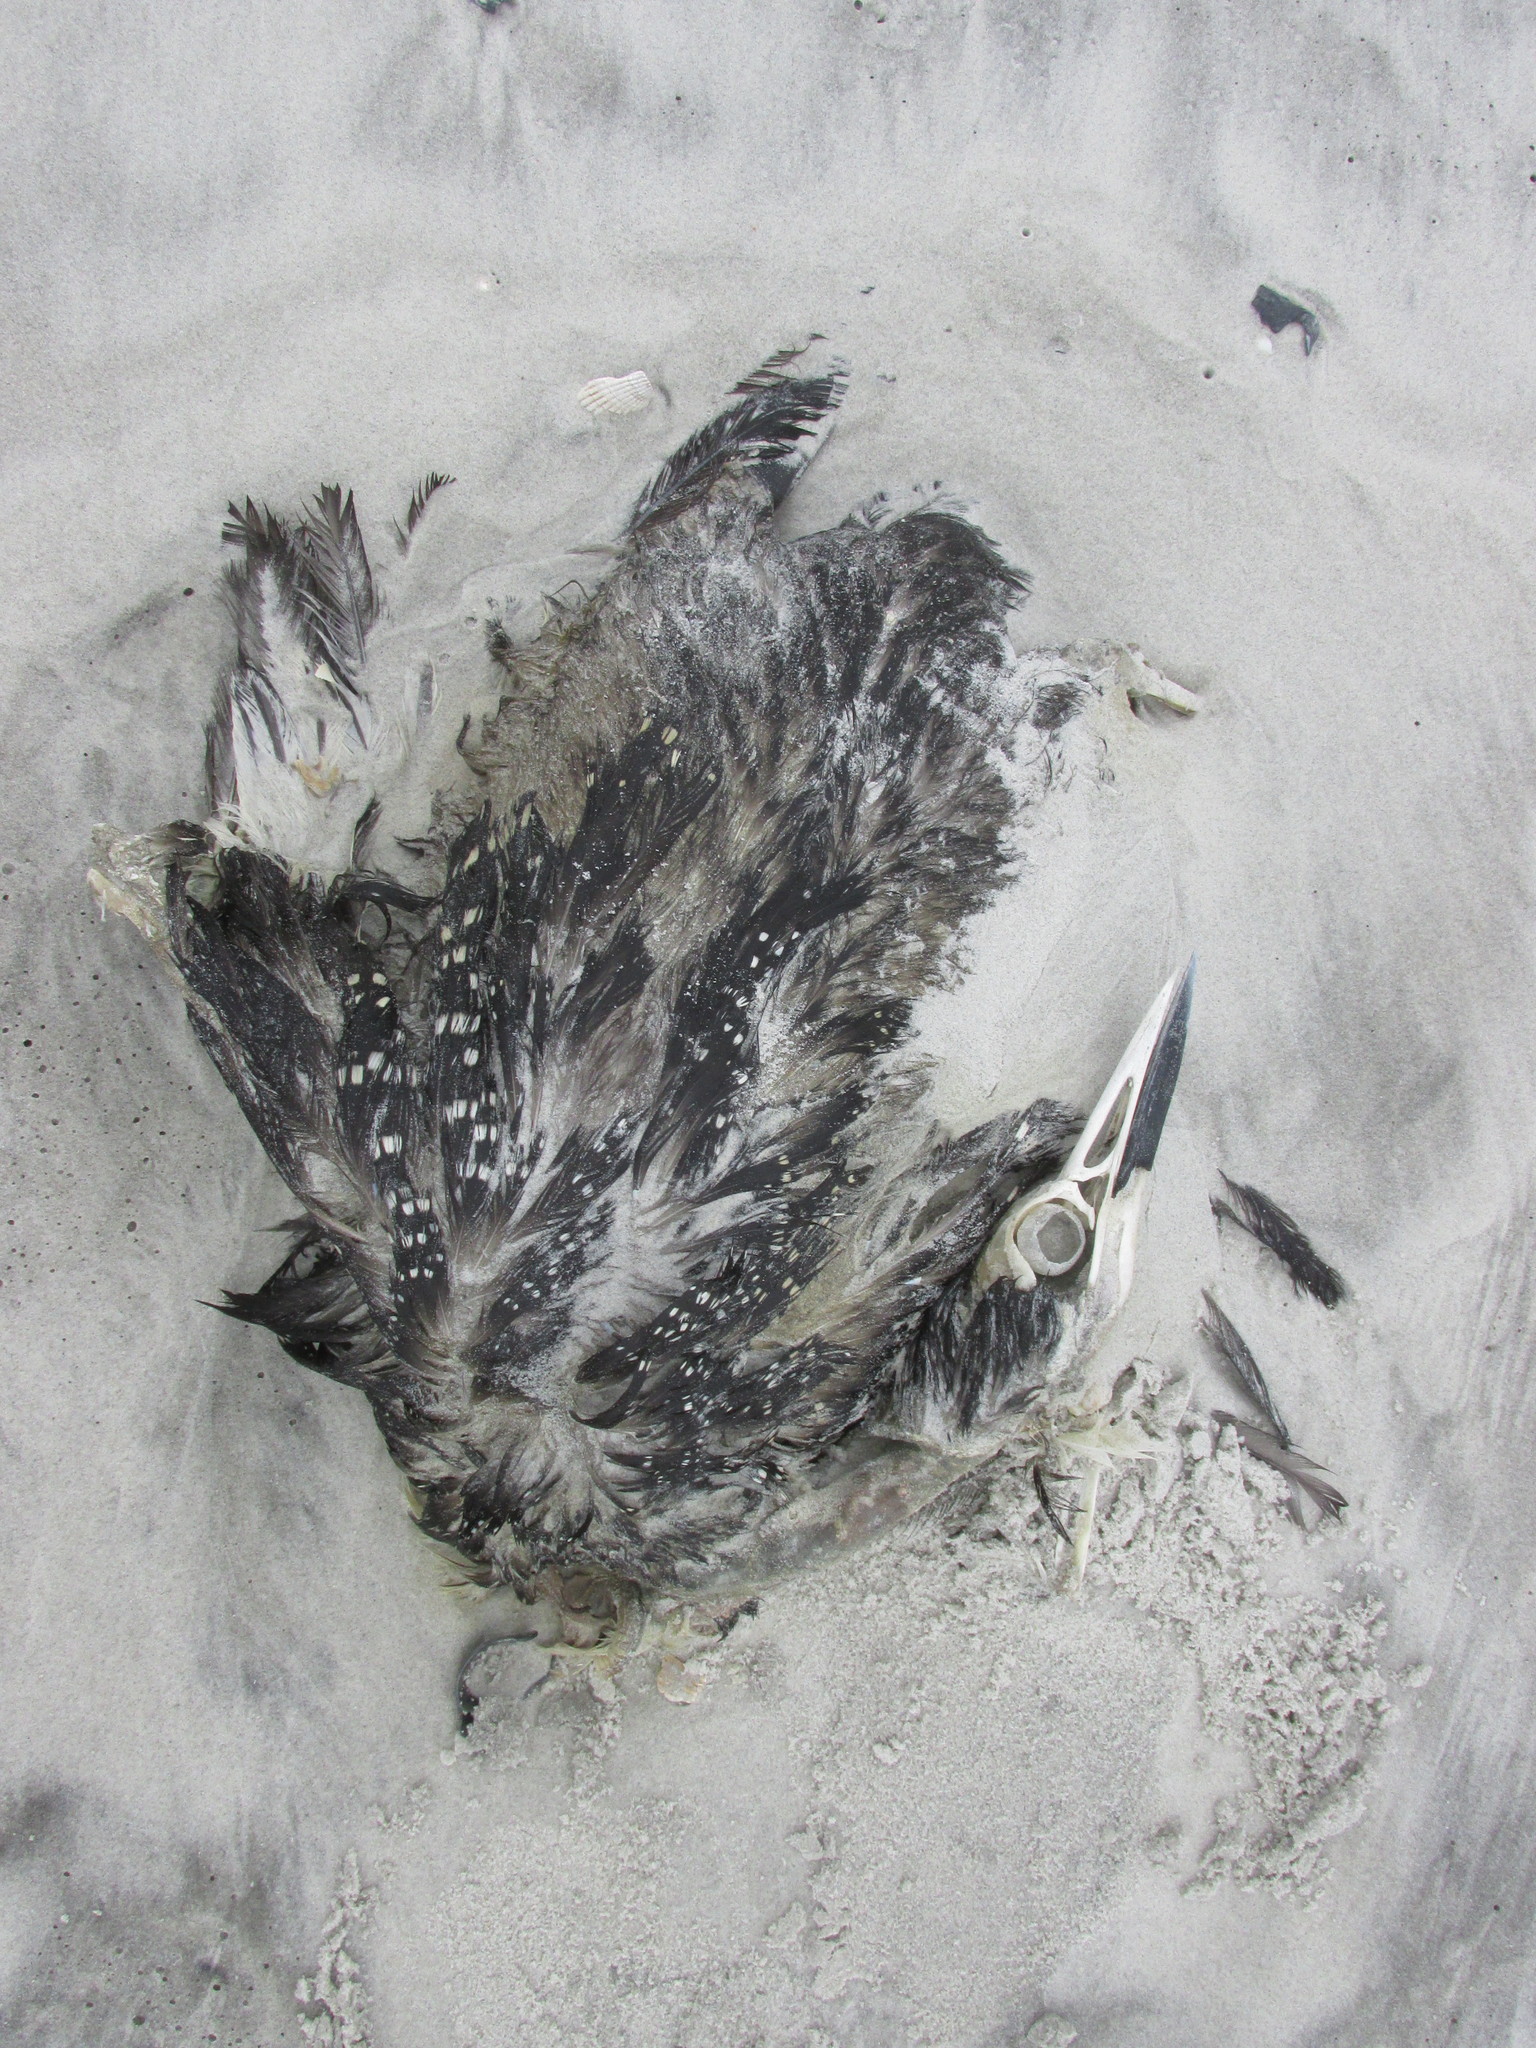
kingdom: Animalia
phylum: Chordata
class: Aves
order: Gaviiformes
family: Gaviidae
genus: Gavia
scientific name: Gavia immer
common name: Common loon
